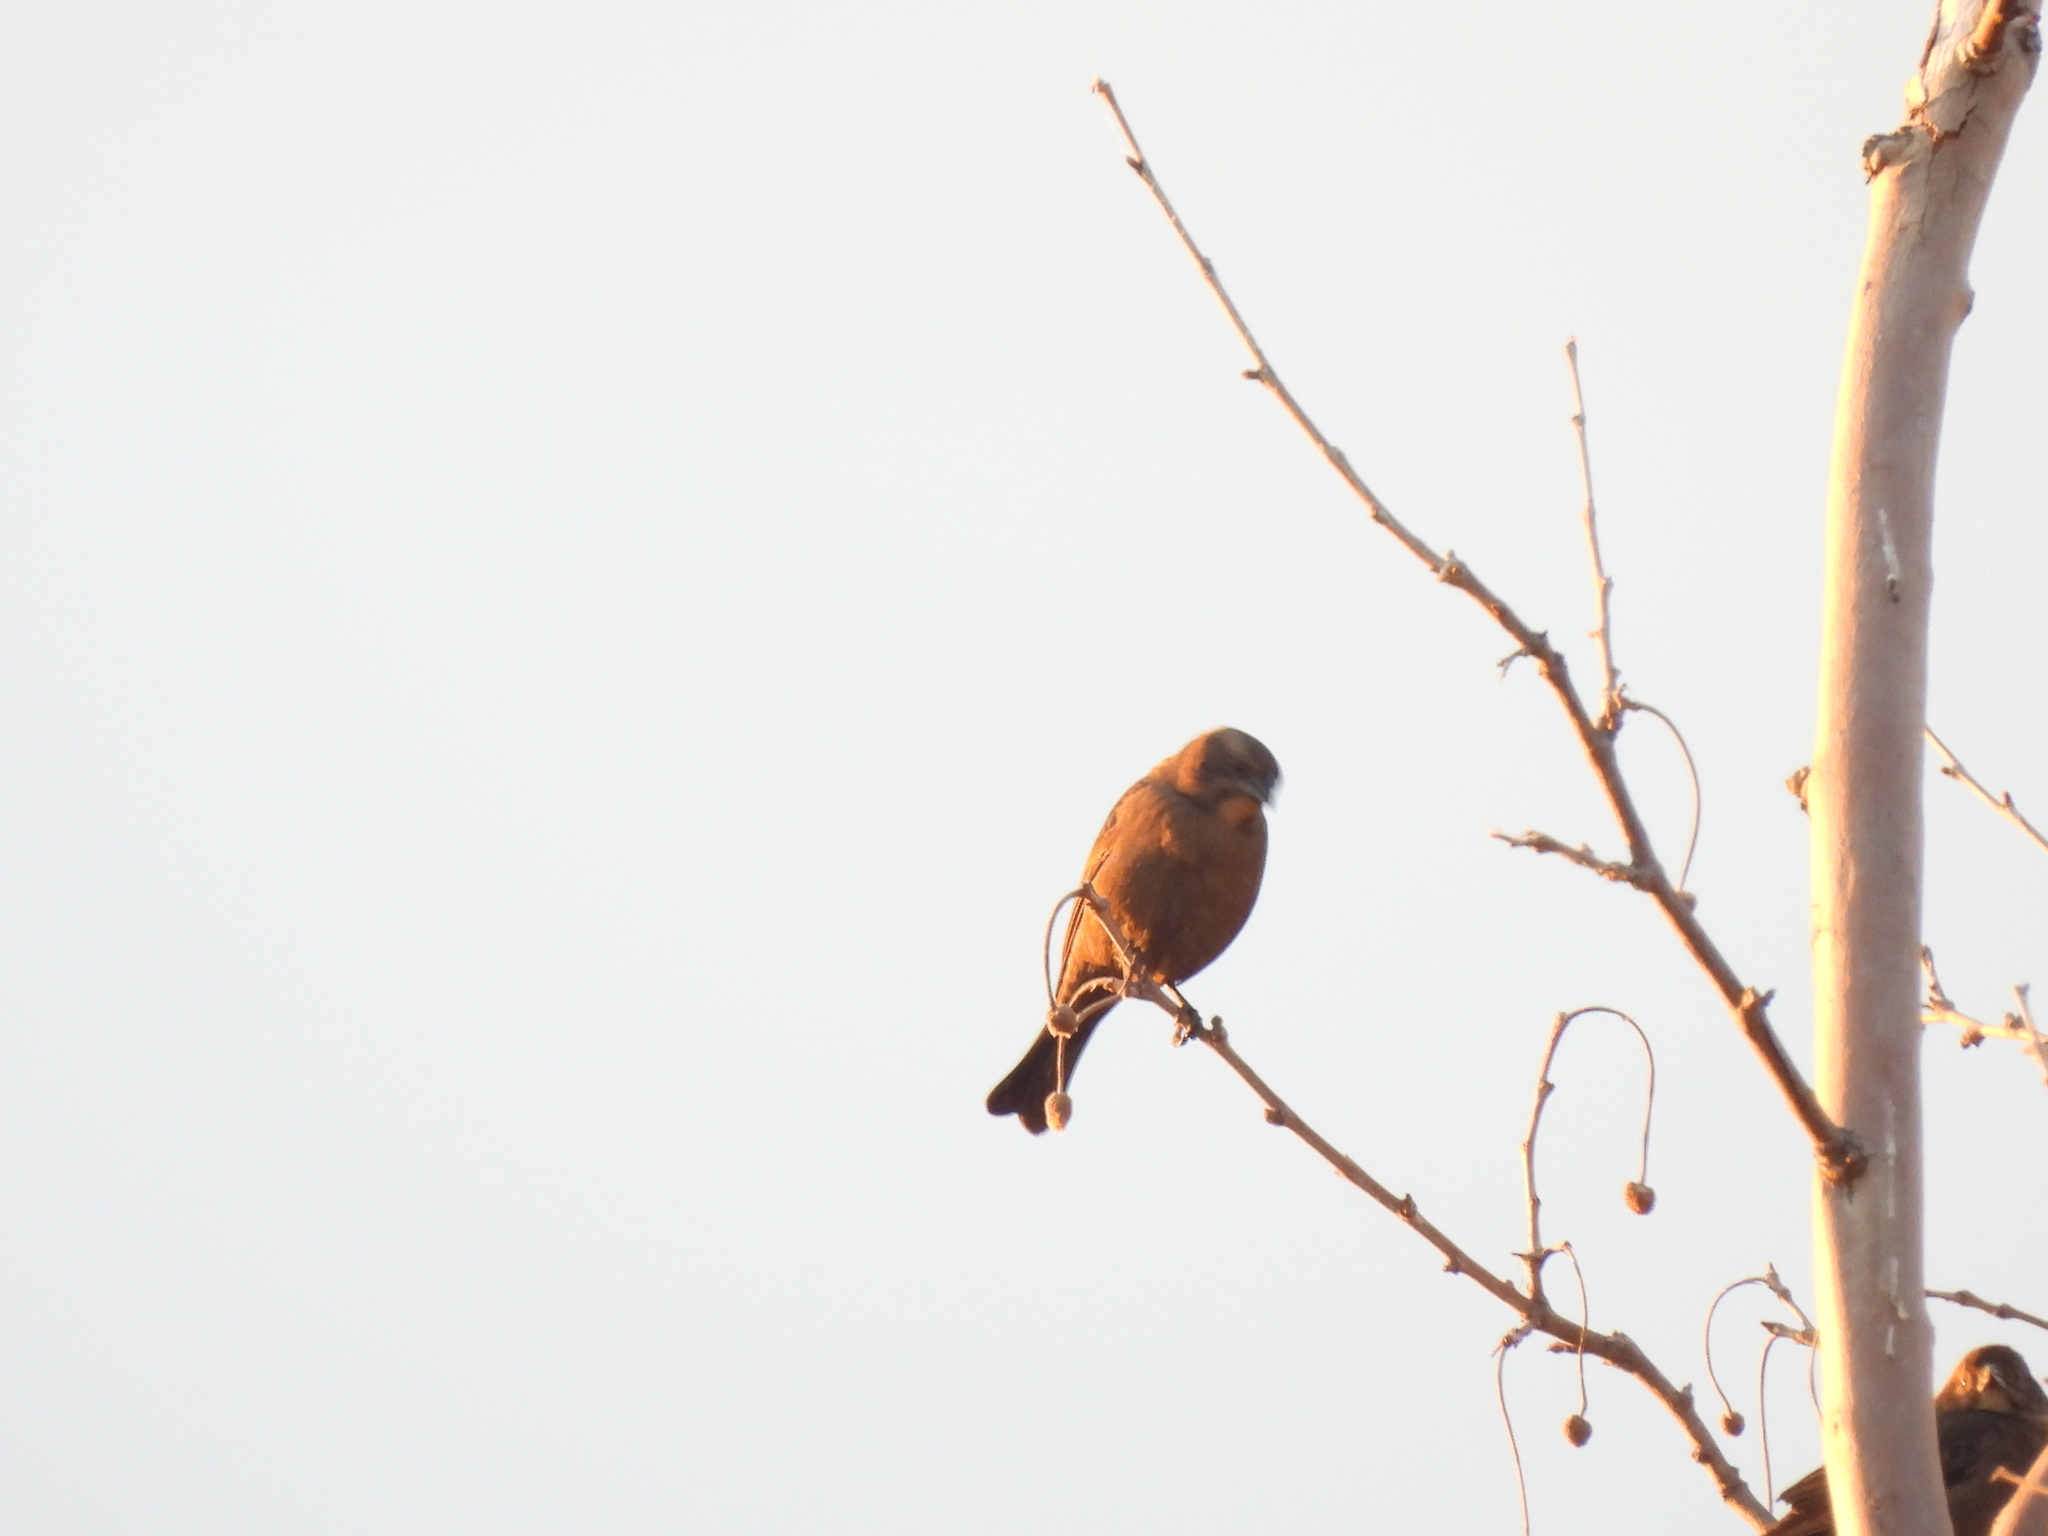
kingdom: Animalia
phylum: Chordata
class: Aves
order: Passeriformes
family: Fringillidae
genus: Haemorhous
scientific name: Haemorhous mexicanus
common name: House finch
